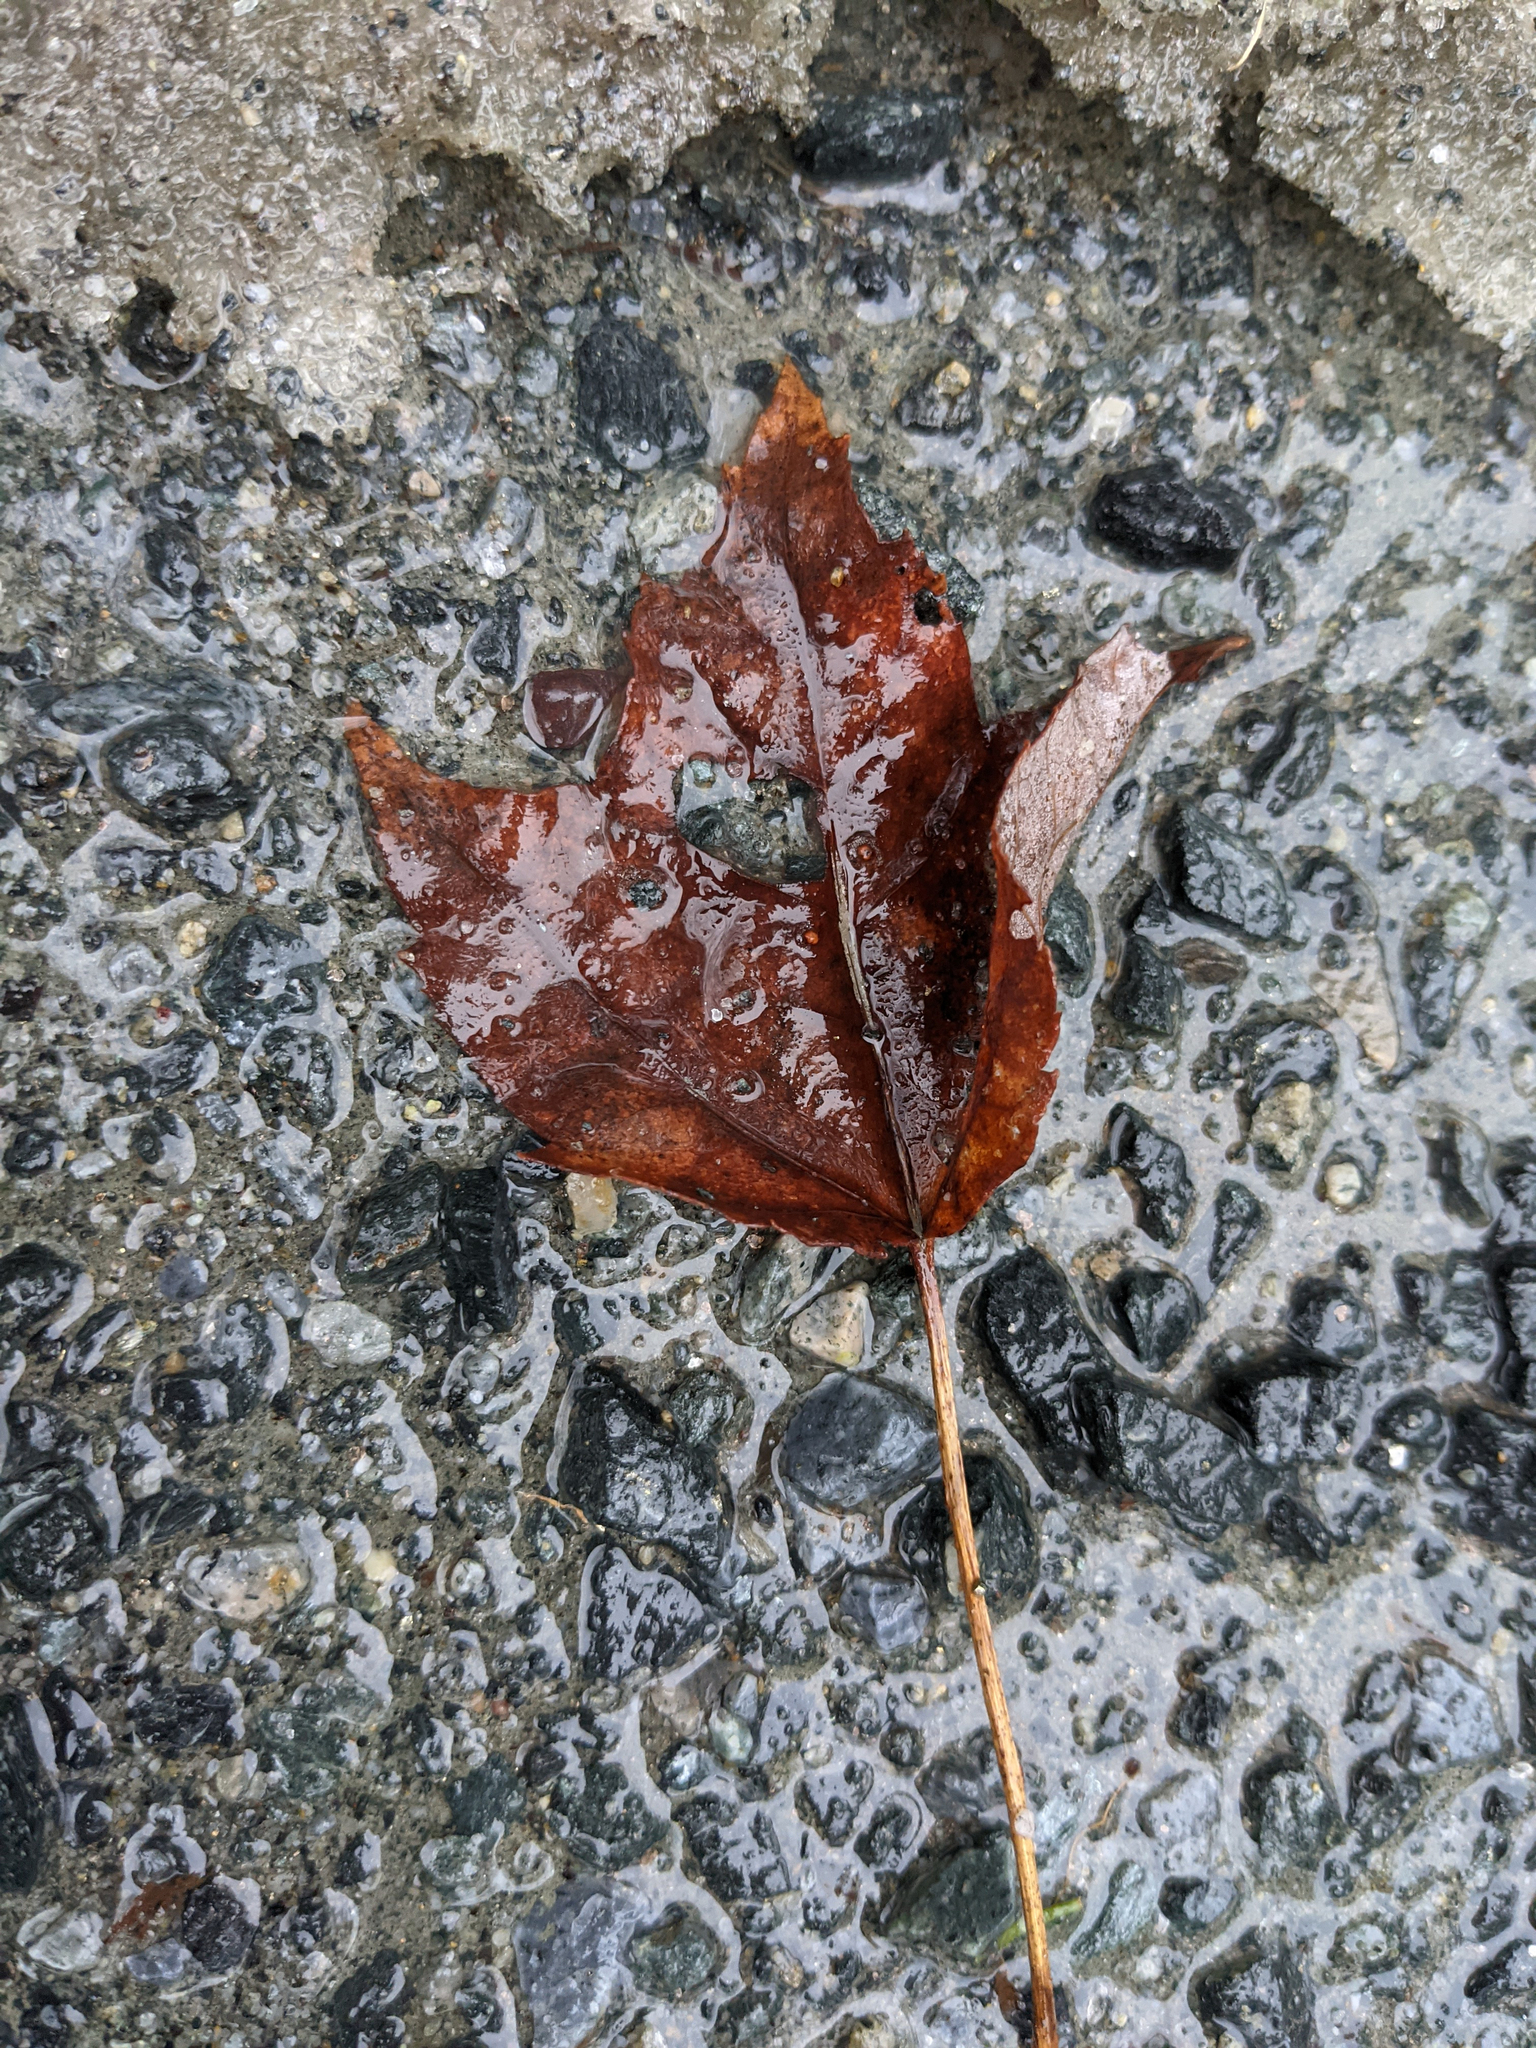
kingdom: Plantae
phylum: Tracheophyta
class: Magnoliopsida
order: Sapindales
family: Sapindaceae
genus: Acer
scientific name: Acer rubrum
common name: Red maple
